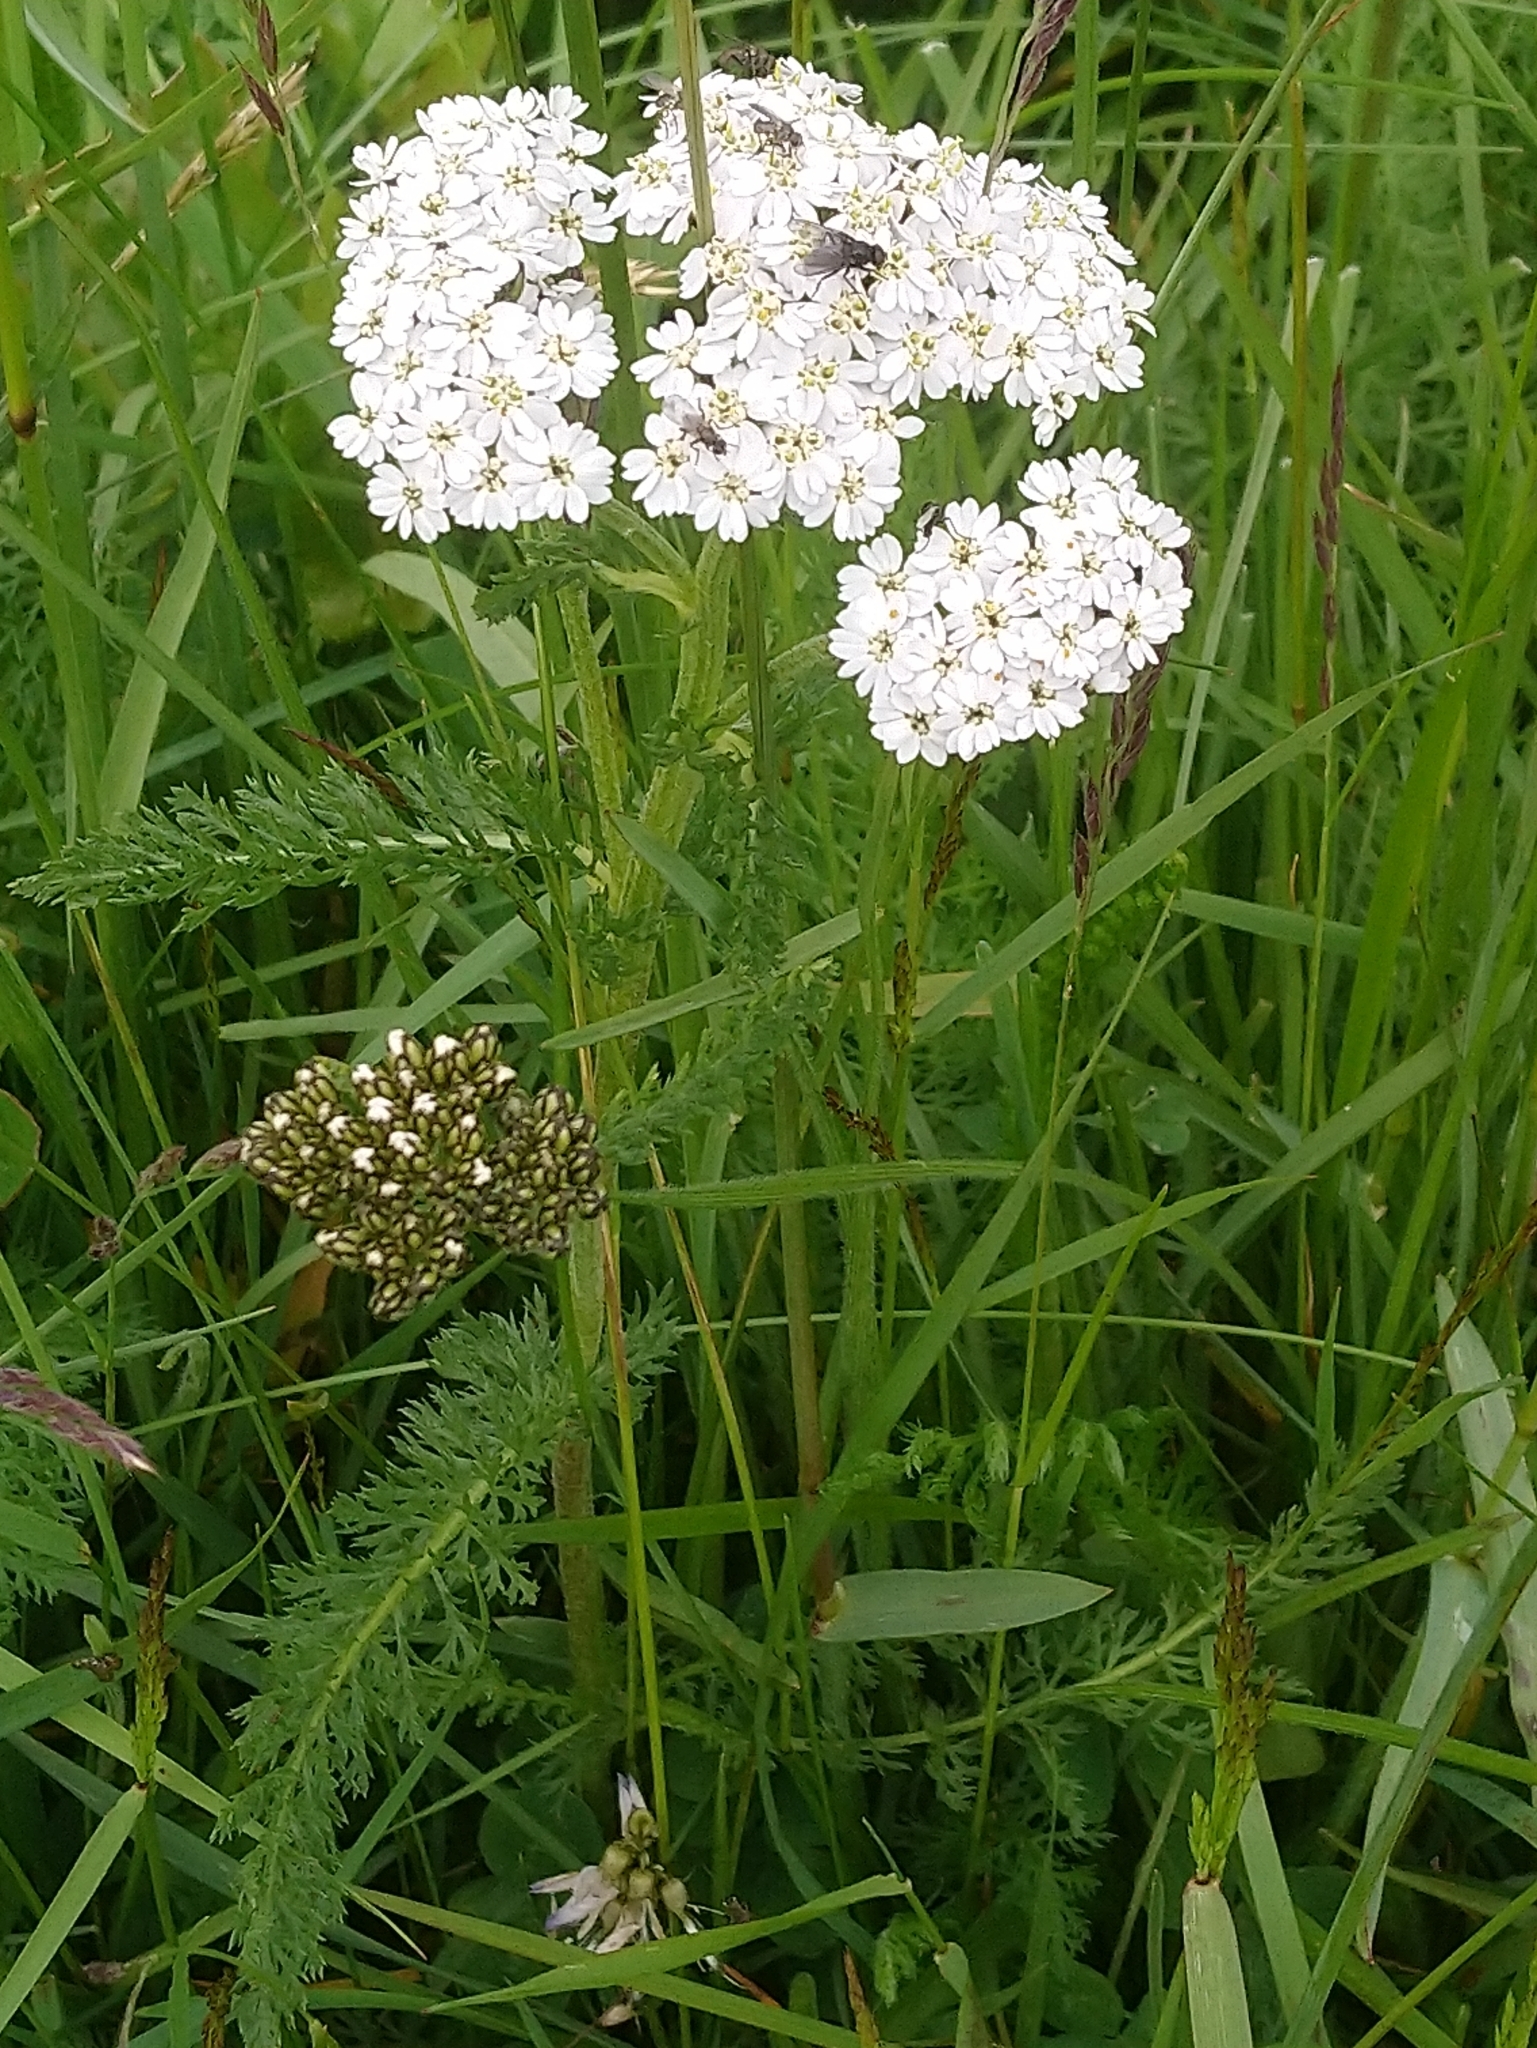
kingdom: Plantae
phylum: Tracheophyta
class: Magnoliopsida
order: Asterales
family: Asteraceae
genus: Achillea
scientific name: Achillea millefolium
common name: Yarrow
